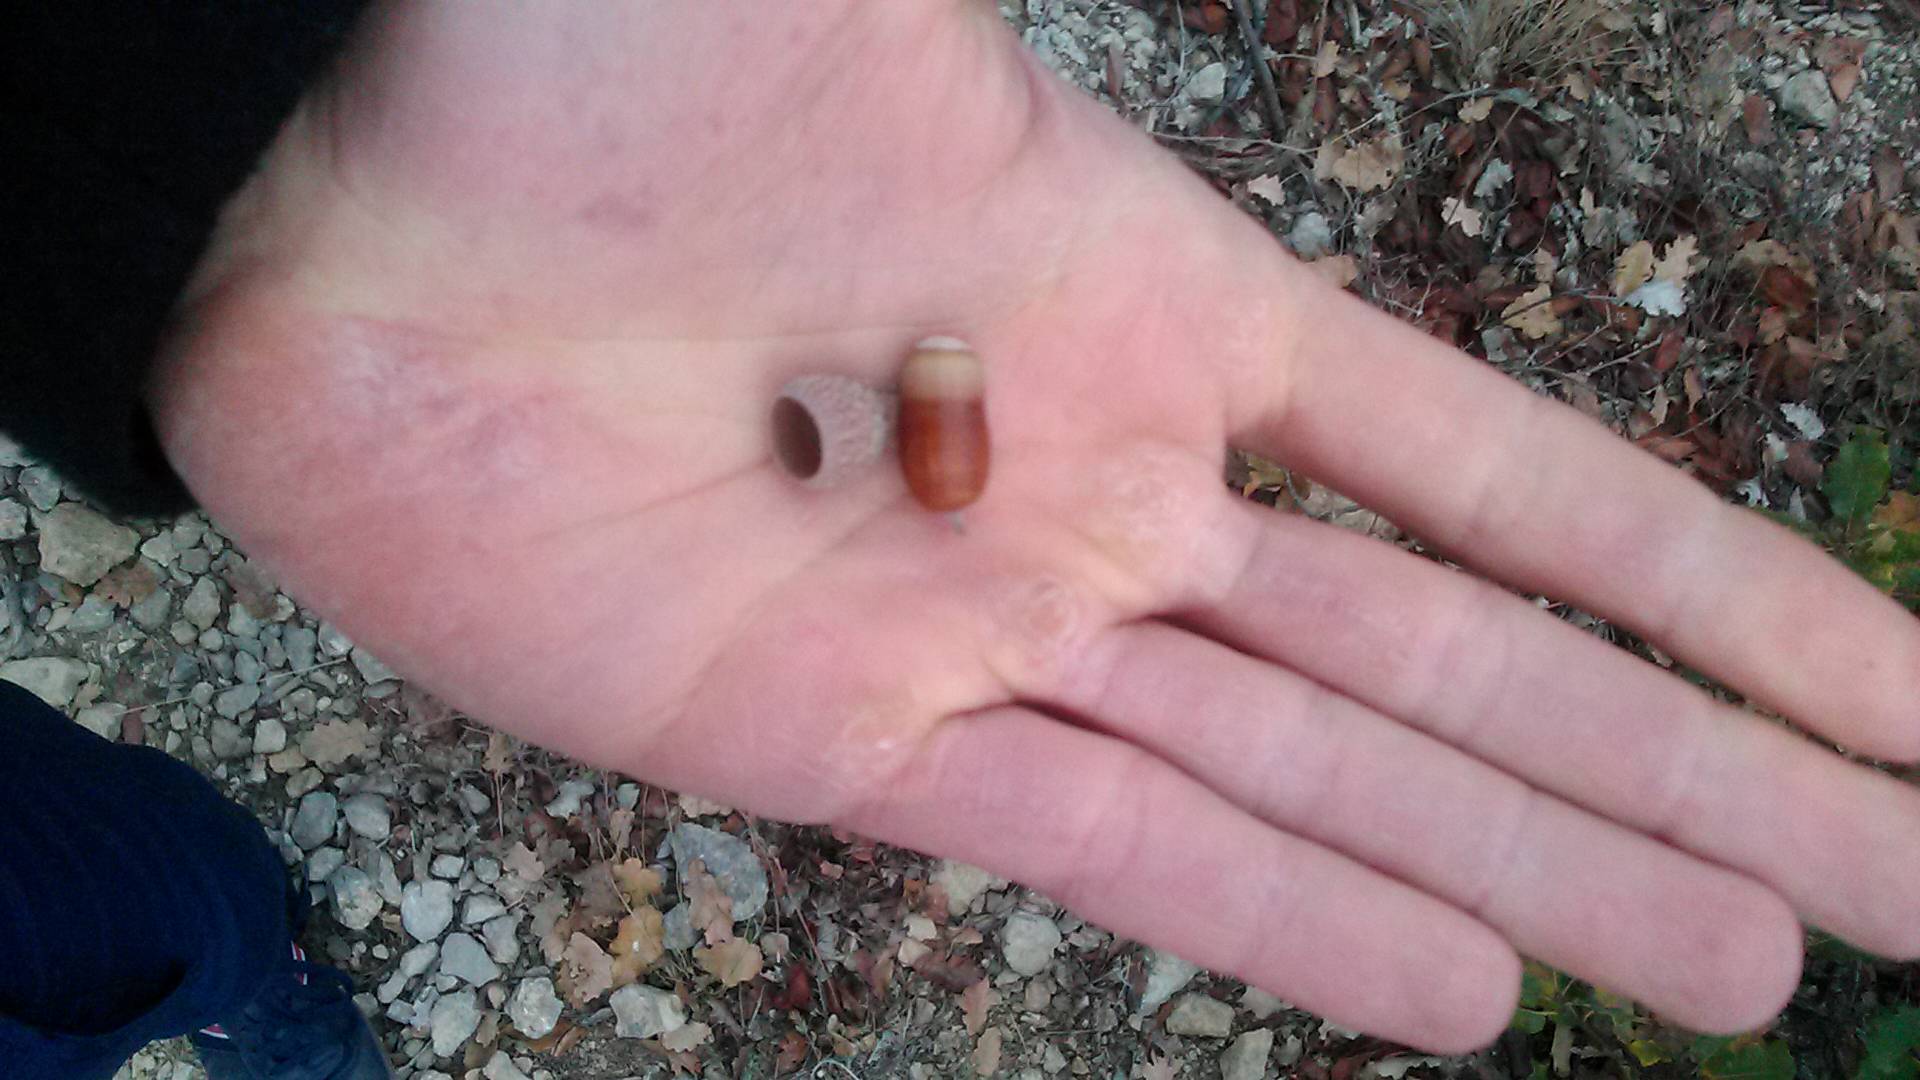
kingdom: Plantae
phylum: Tracheophyta
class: Magnoliopsida
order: Fagales
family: Fagaceae
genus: Quercus
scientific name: Quercus pubescens
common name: Downy oak
